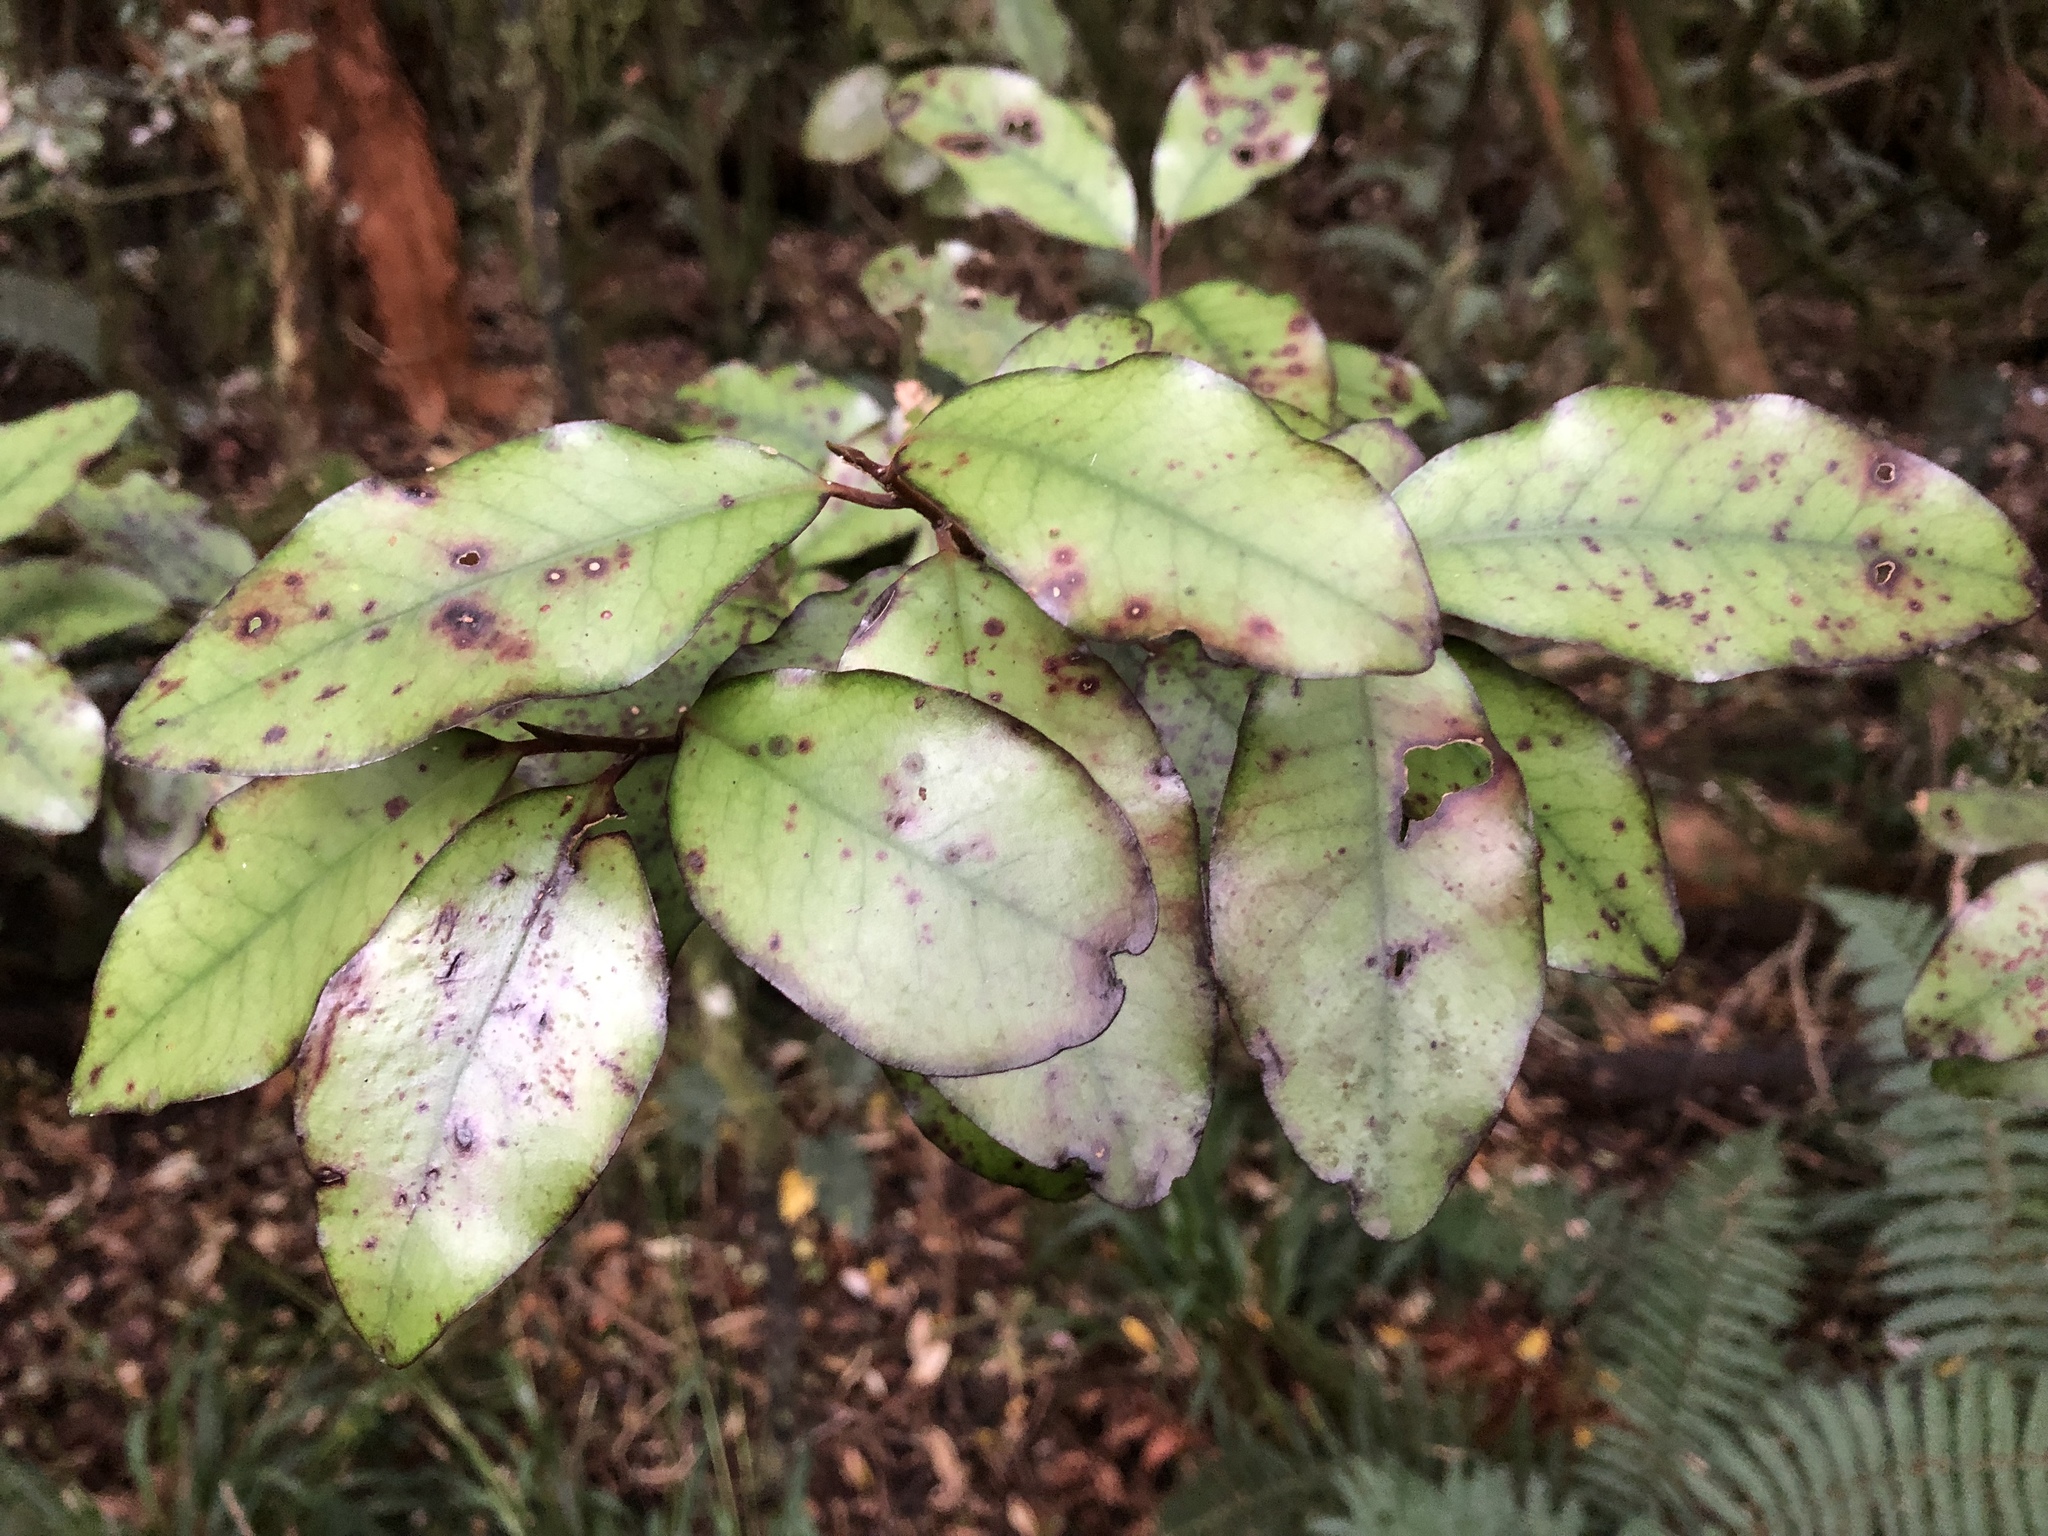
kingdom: Plantae
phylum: Tracheophyta
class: Magnoliopsida
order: Canellales
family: Winteraceae
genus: Pseudowintera
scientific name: Pseudowintera colorata
